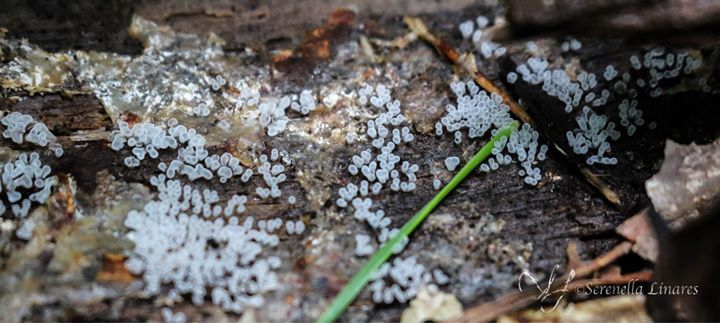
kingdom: Protozoa
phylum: Mycetozoa
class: Protosteliomycetes
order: Ceratiomyxales
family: Ceratiomyxaceae
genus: Ceratiomyxa
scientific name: Ceratiomyxa fruticulosa
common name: Honeycomb coral slime mold
